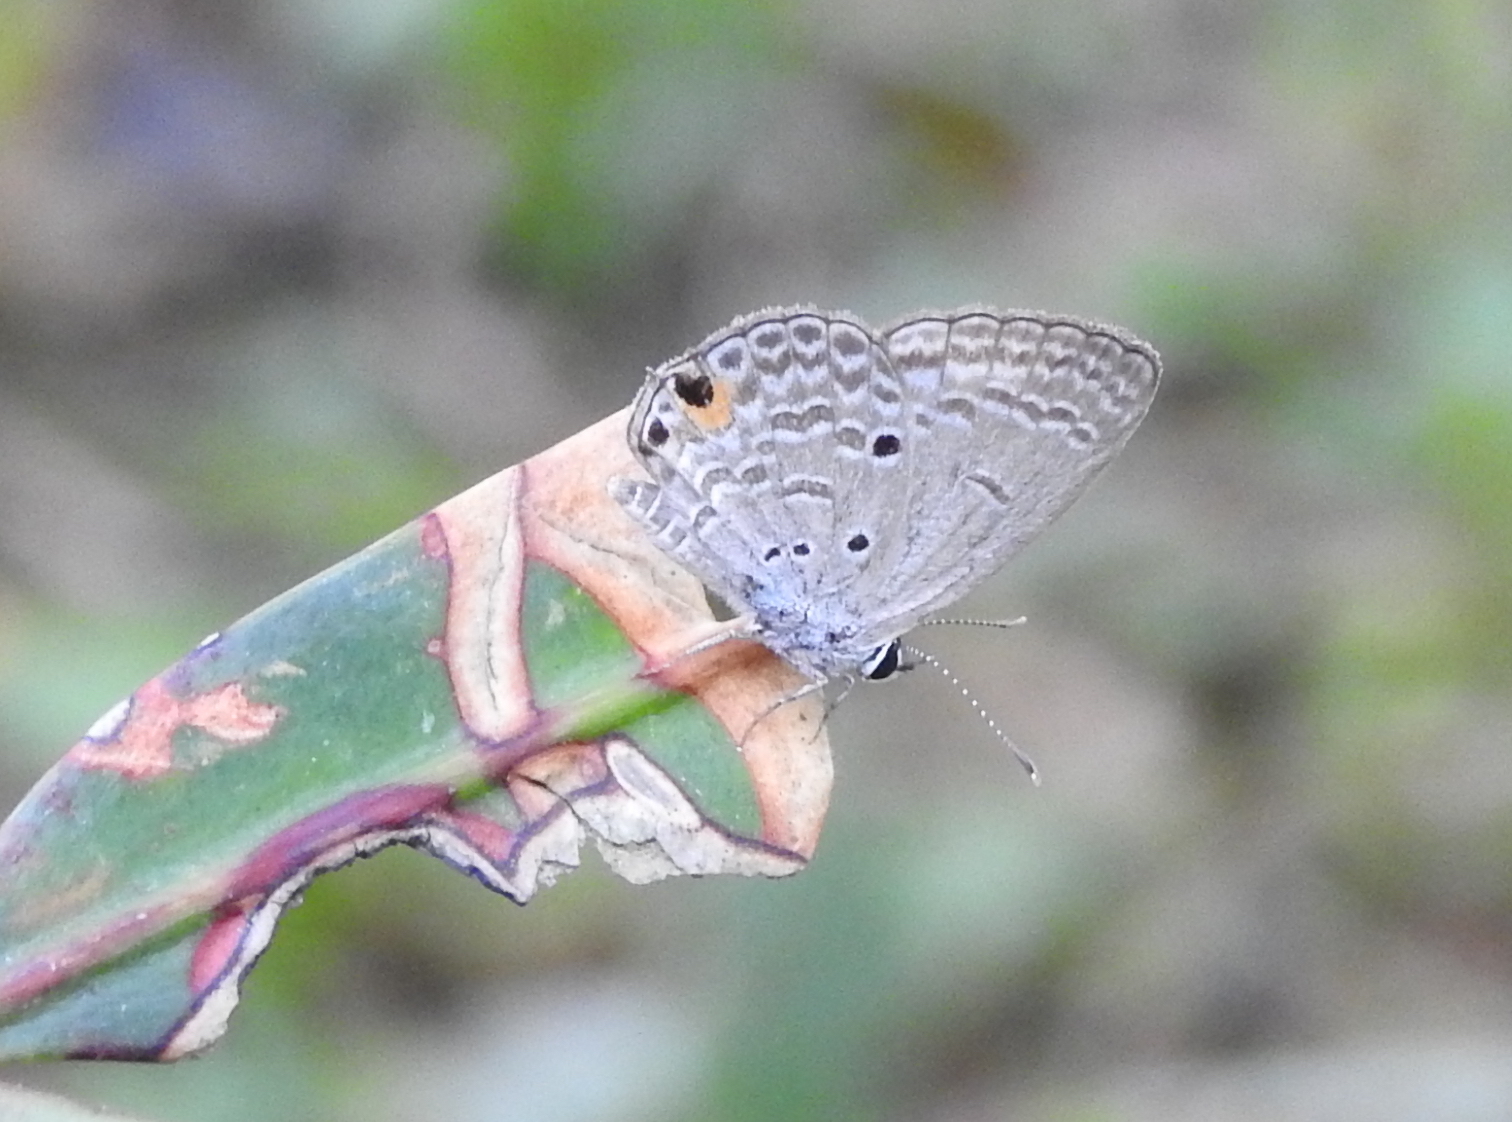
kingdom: Animalia
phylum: Arthropoda
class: Insecta
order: Lepidoptera
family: Lycaenidae
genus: Luthrodes
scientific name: Luthrodes pandava
